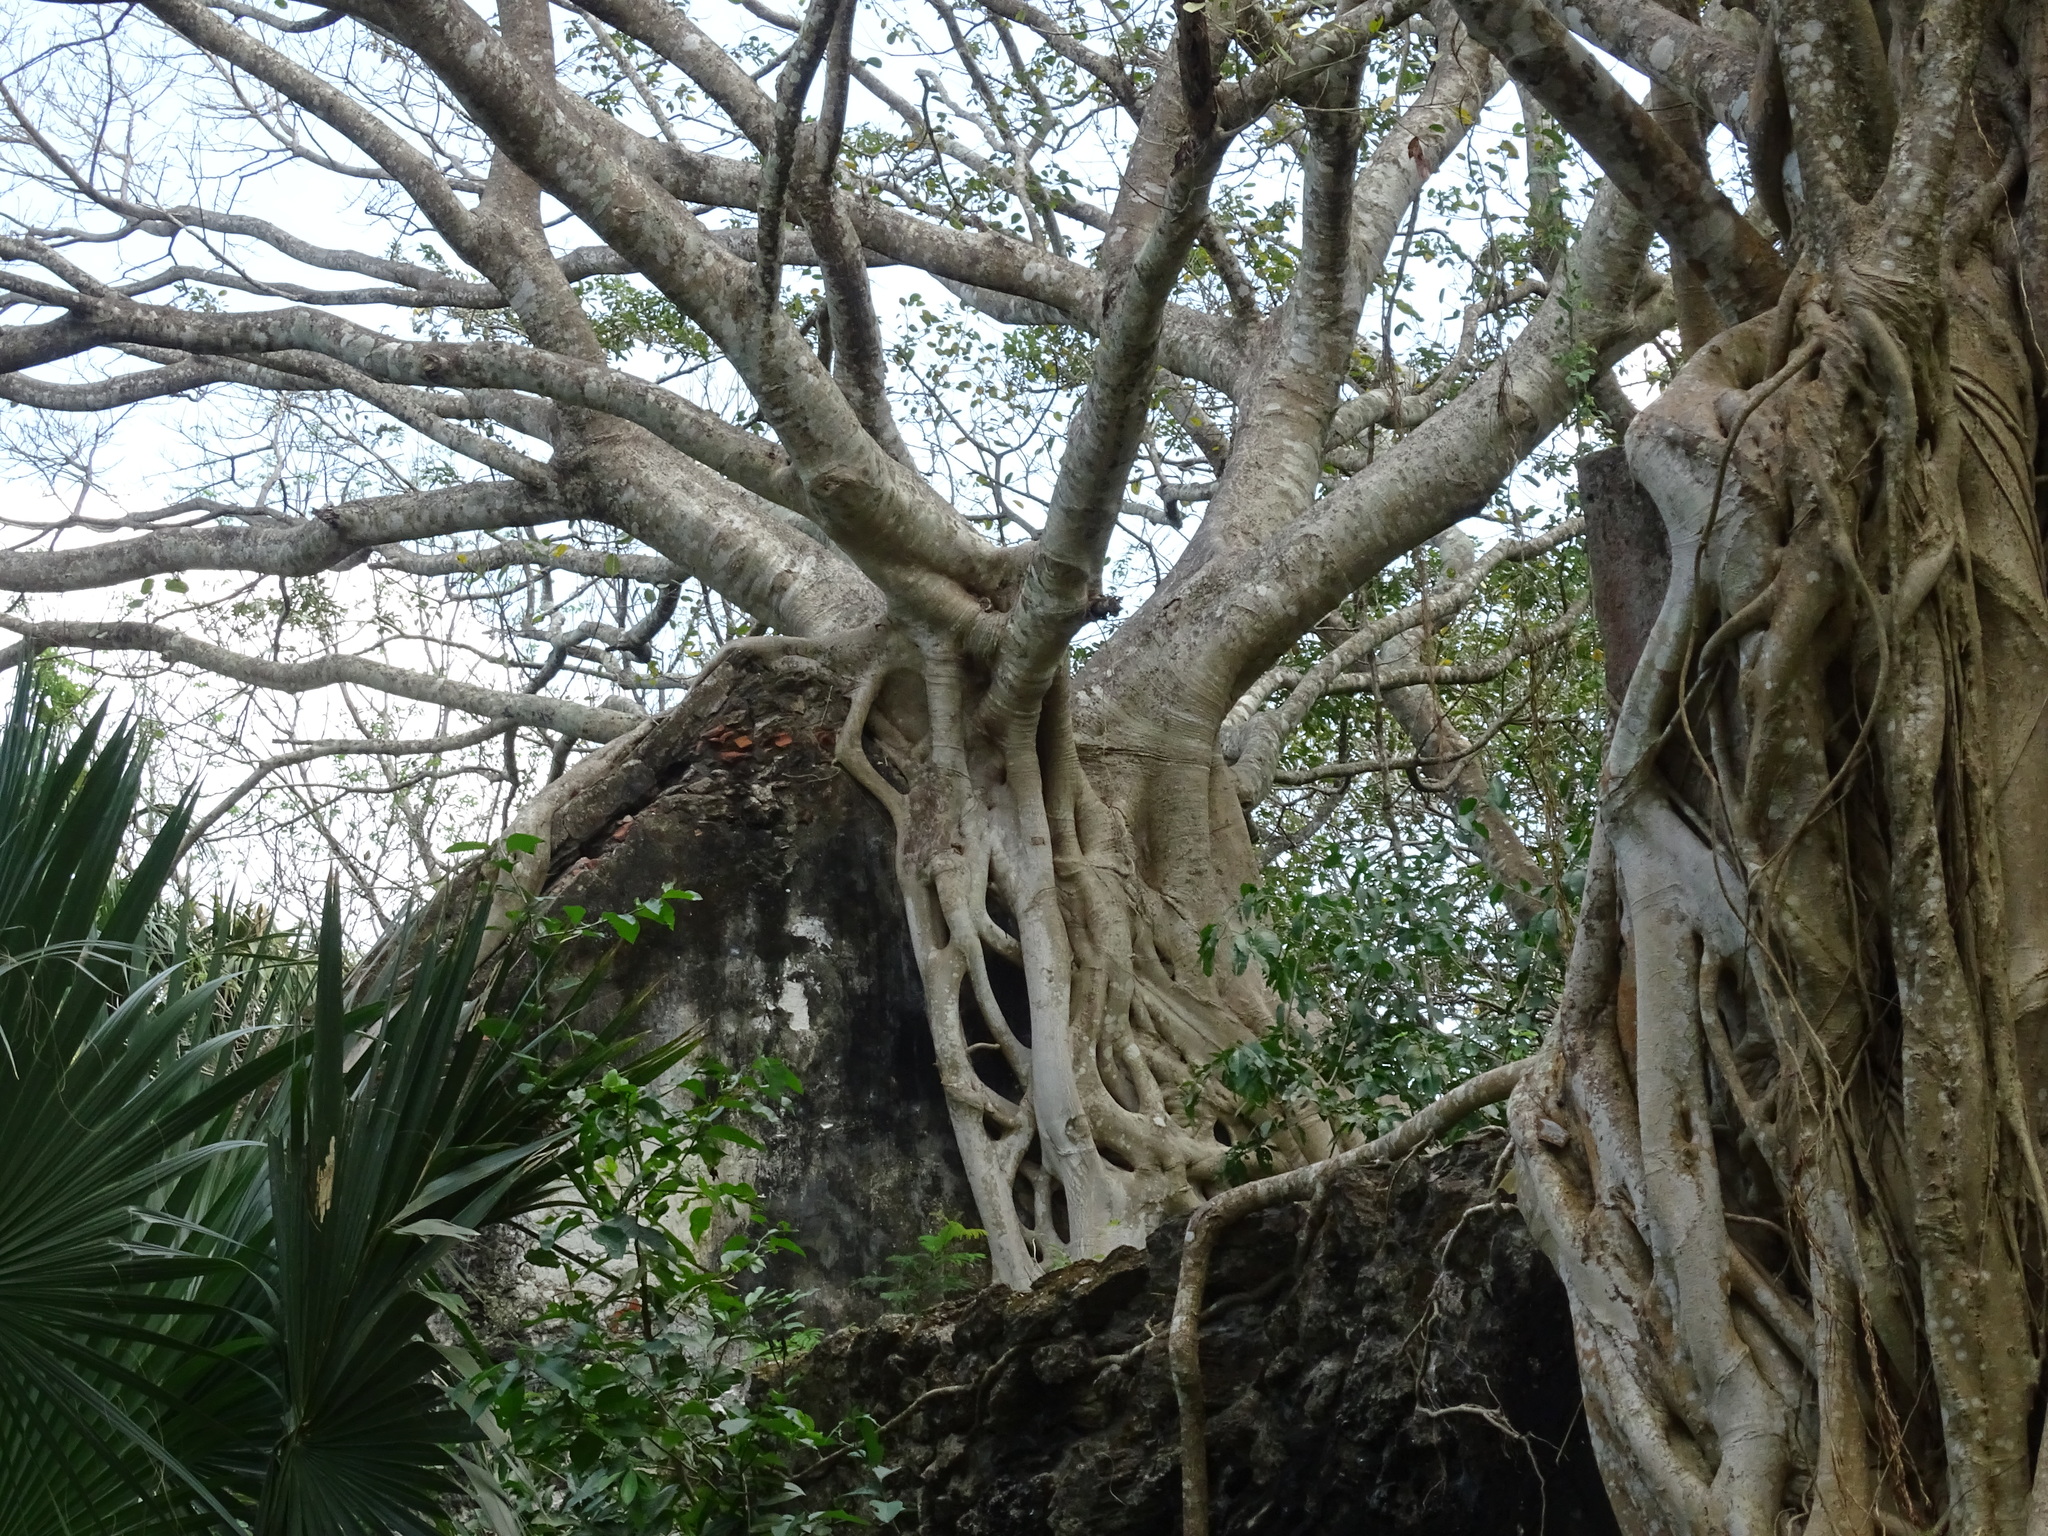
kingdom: Plantae
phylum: Tracheophyta
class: Magnoliopsida
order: Rosales
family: Moraceae
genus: Ficus
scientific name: Ficus crassinervia
